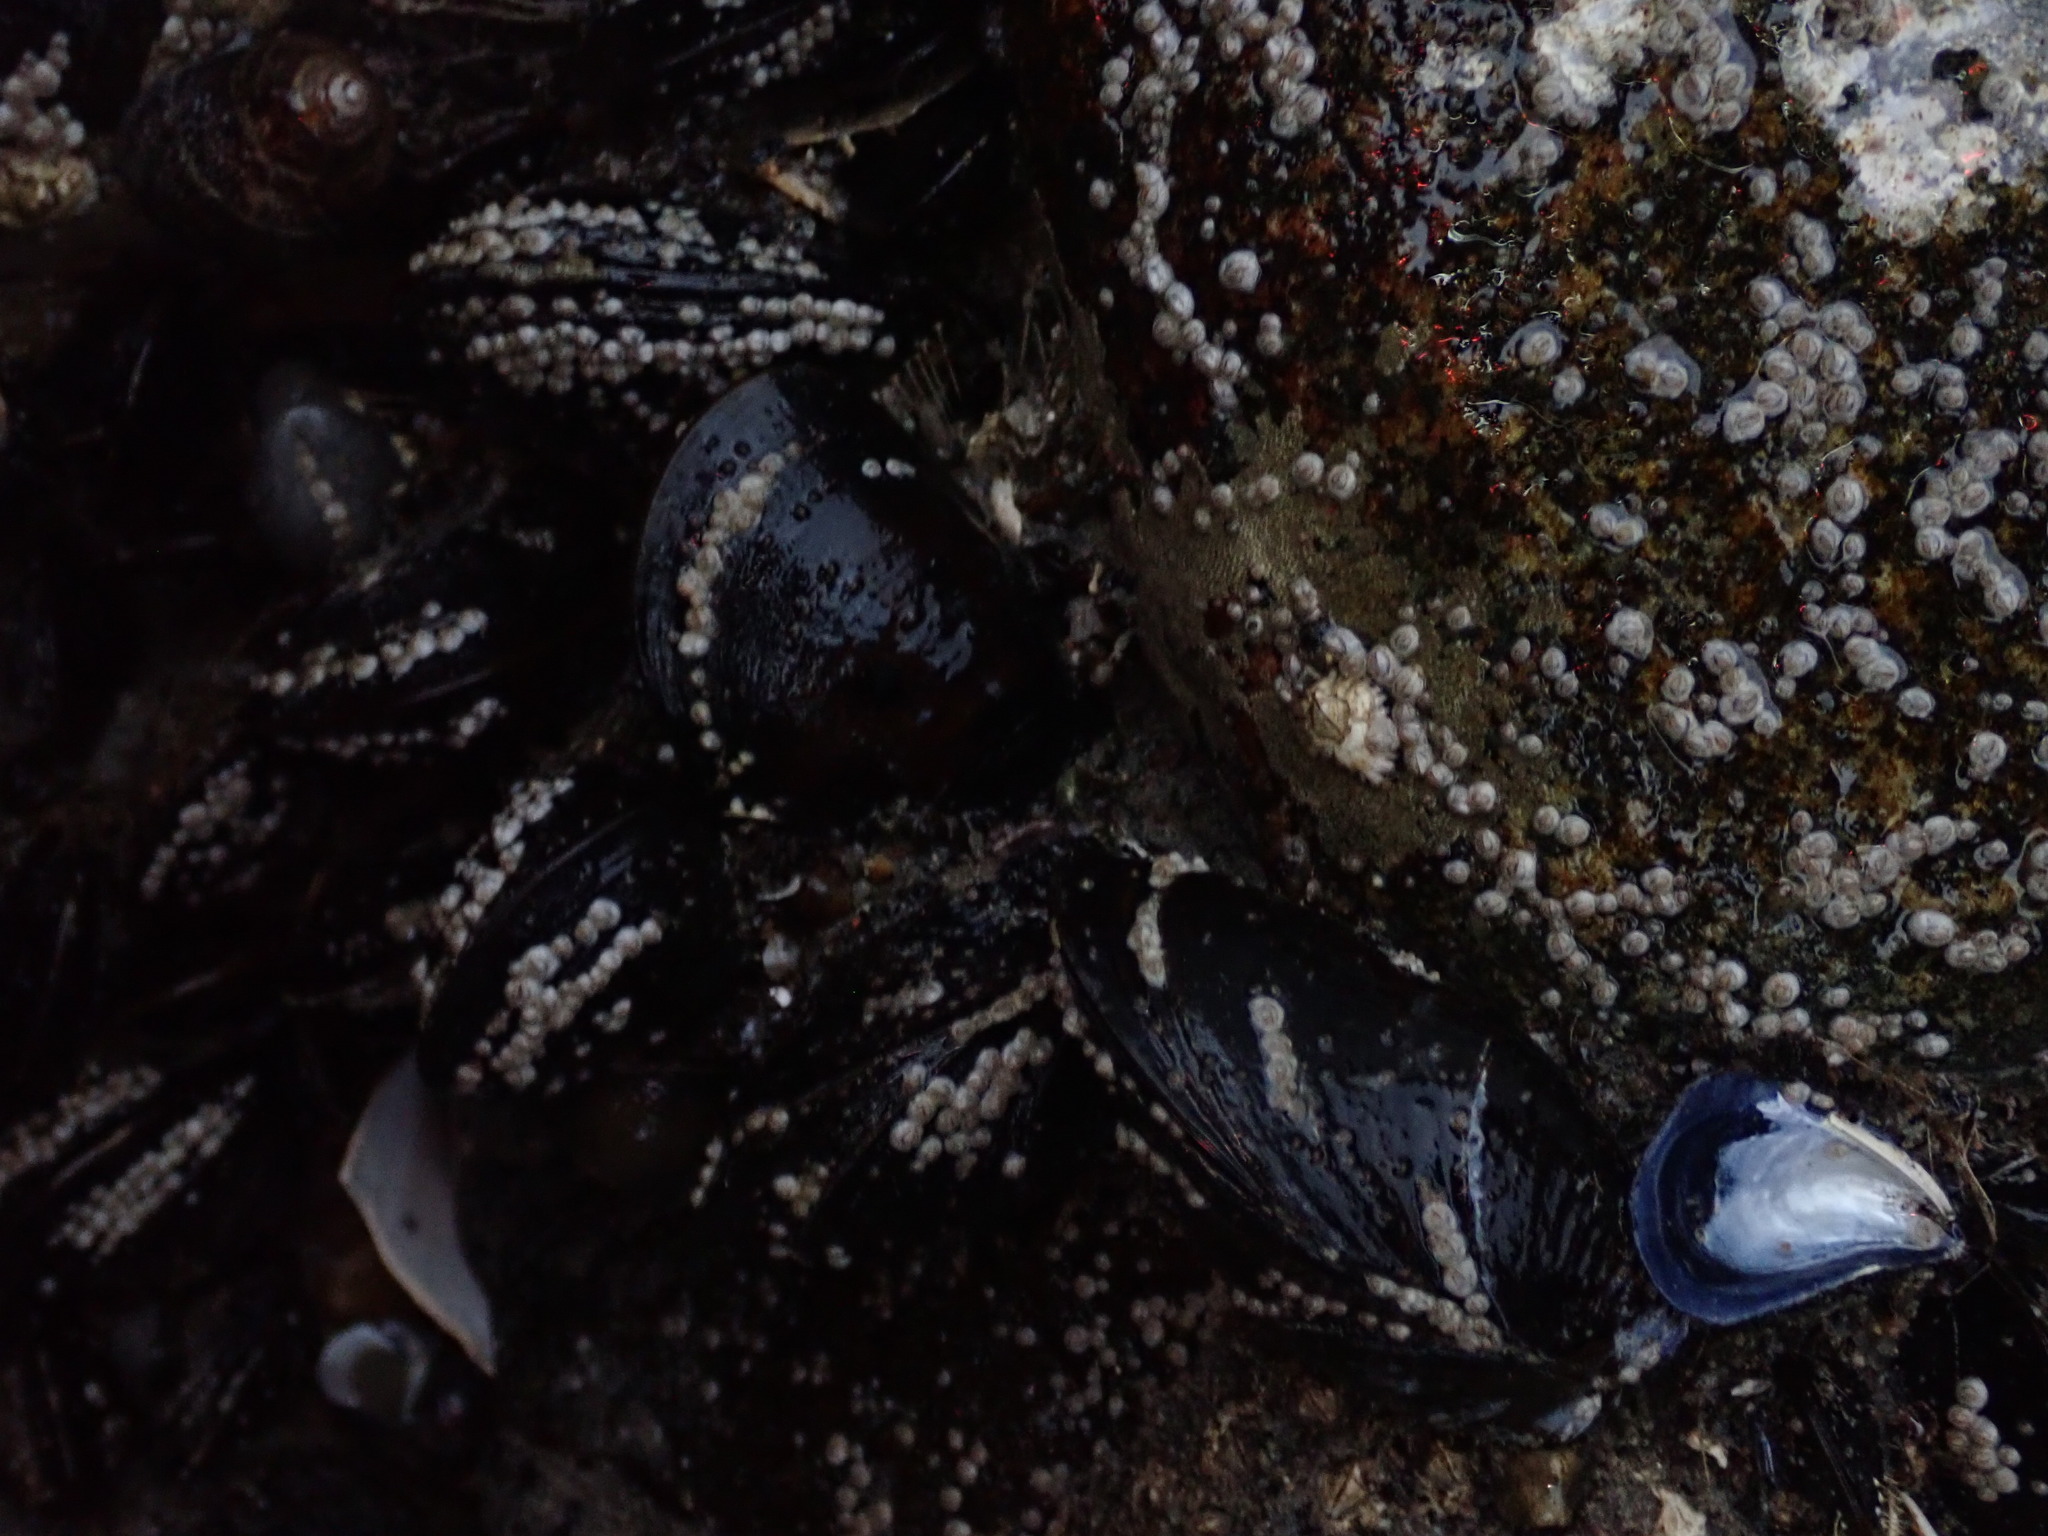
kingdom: Animalia
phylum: Mollusca
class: Bivalvia
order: Mytilida
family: Mytilidae
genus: Mytilus
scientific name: Mytilus edulis
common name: Blue mussel
